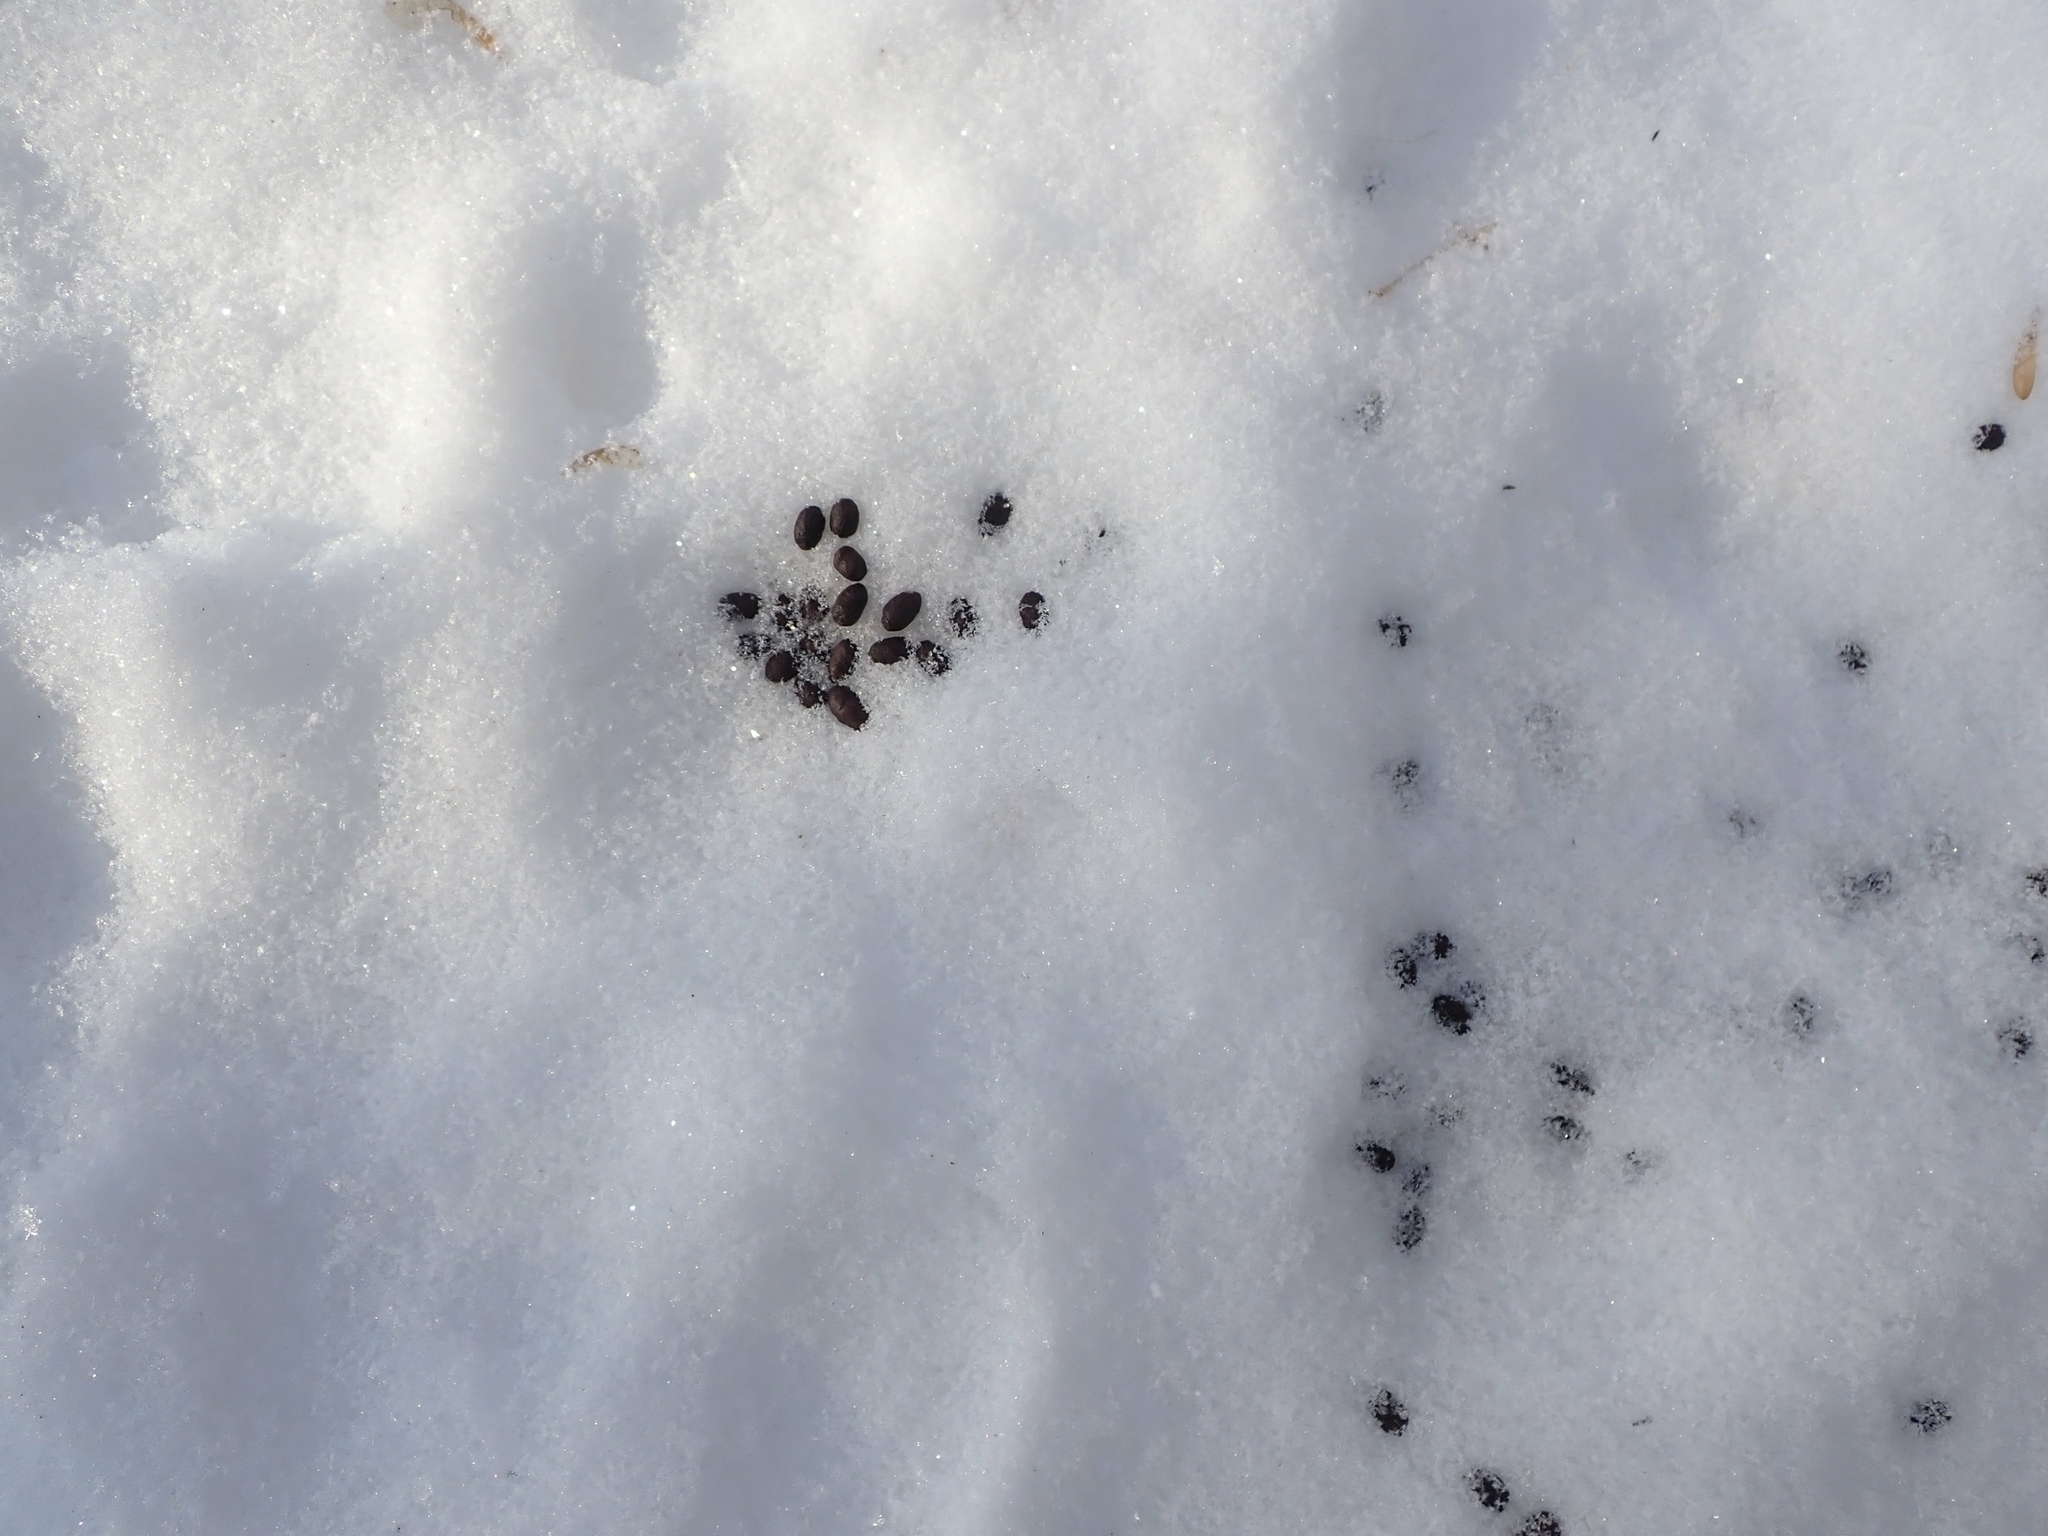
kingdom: Animalia
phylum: Chordata
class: Mammalia
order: Artiodactyla
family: Cervidae
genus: Odocoileus
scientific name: Odocoileus virginianus
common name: White-tailed deer
